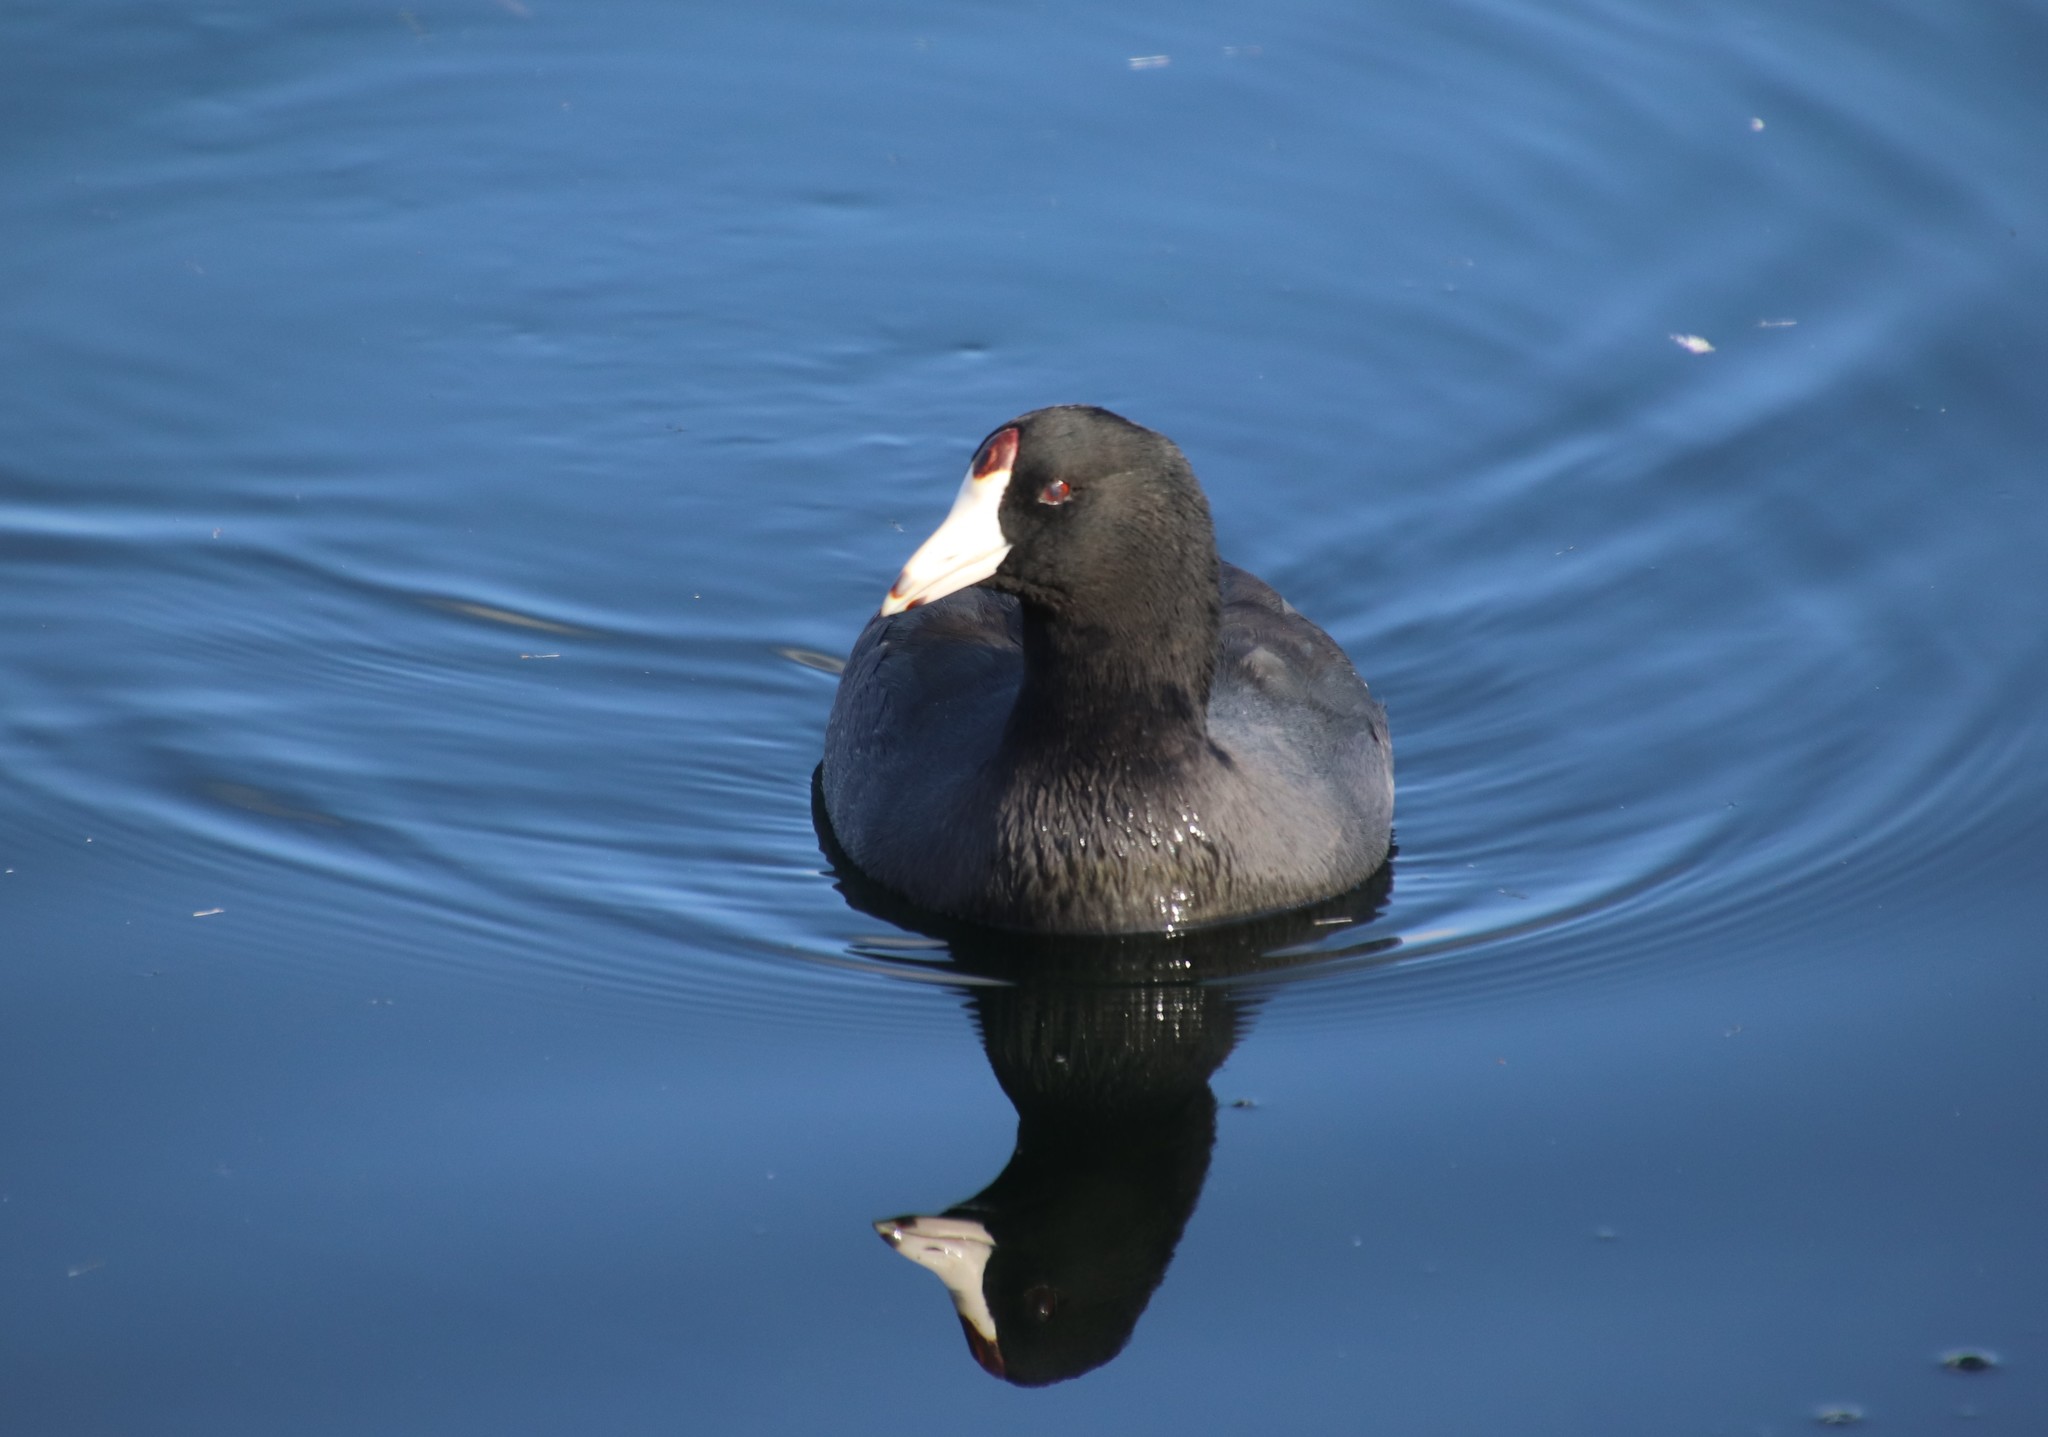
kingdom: Animalia
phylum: Chordata
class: Aves
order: Gruiformes
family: Rallidae
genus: Fulica
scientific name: Fulica americana
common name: American coot
